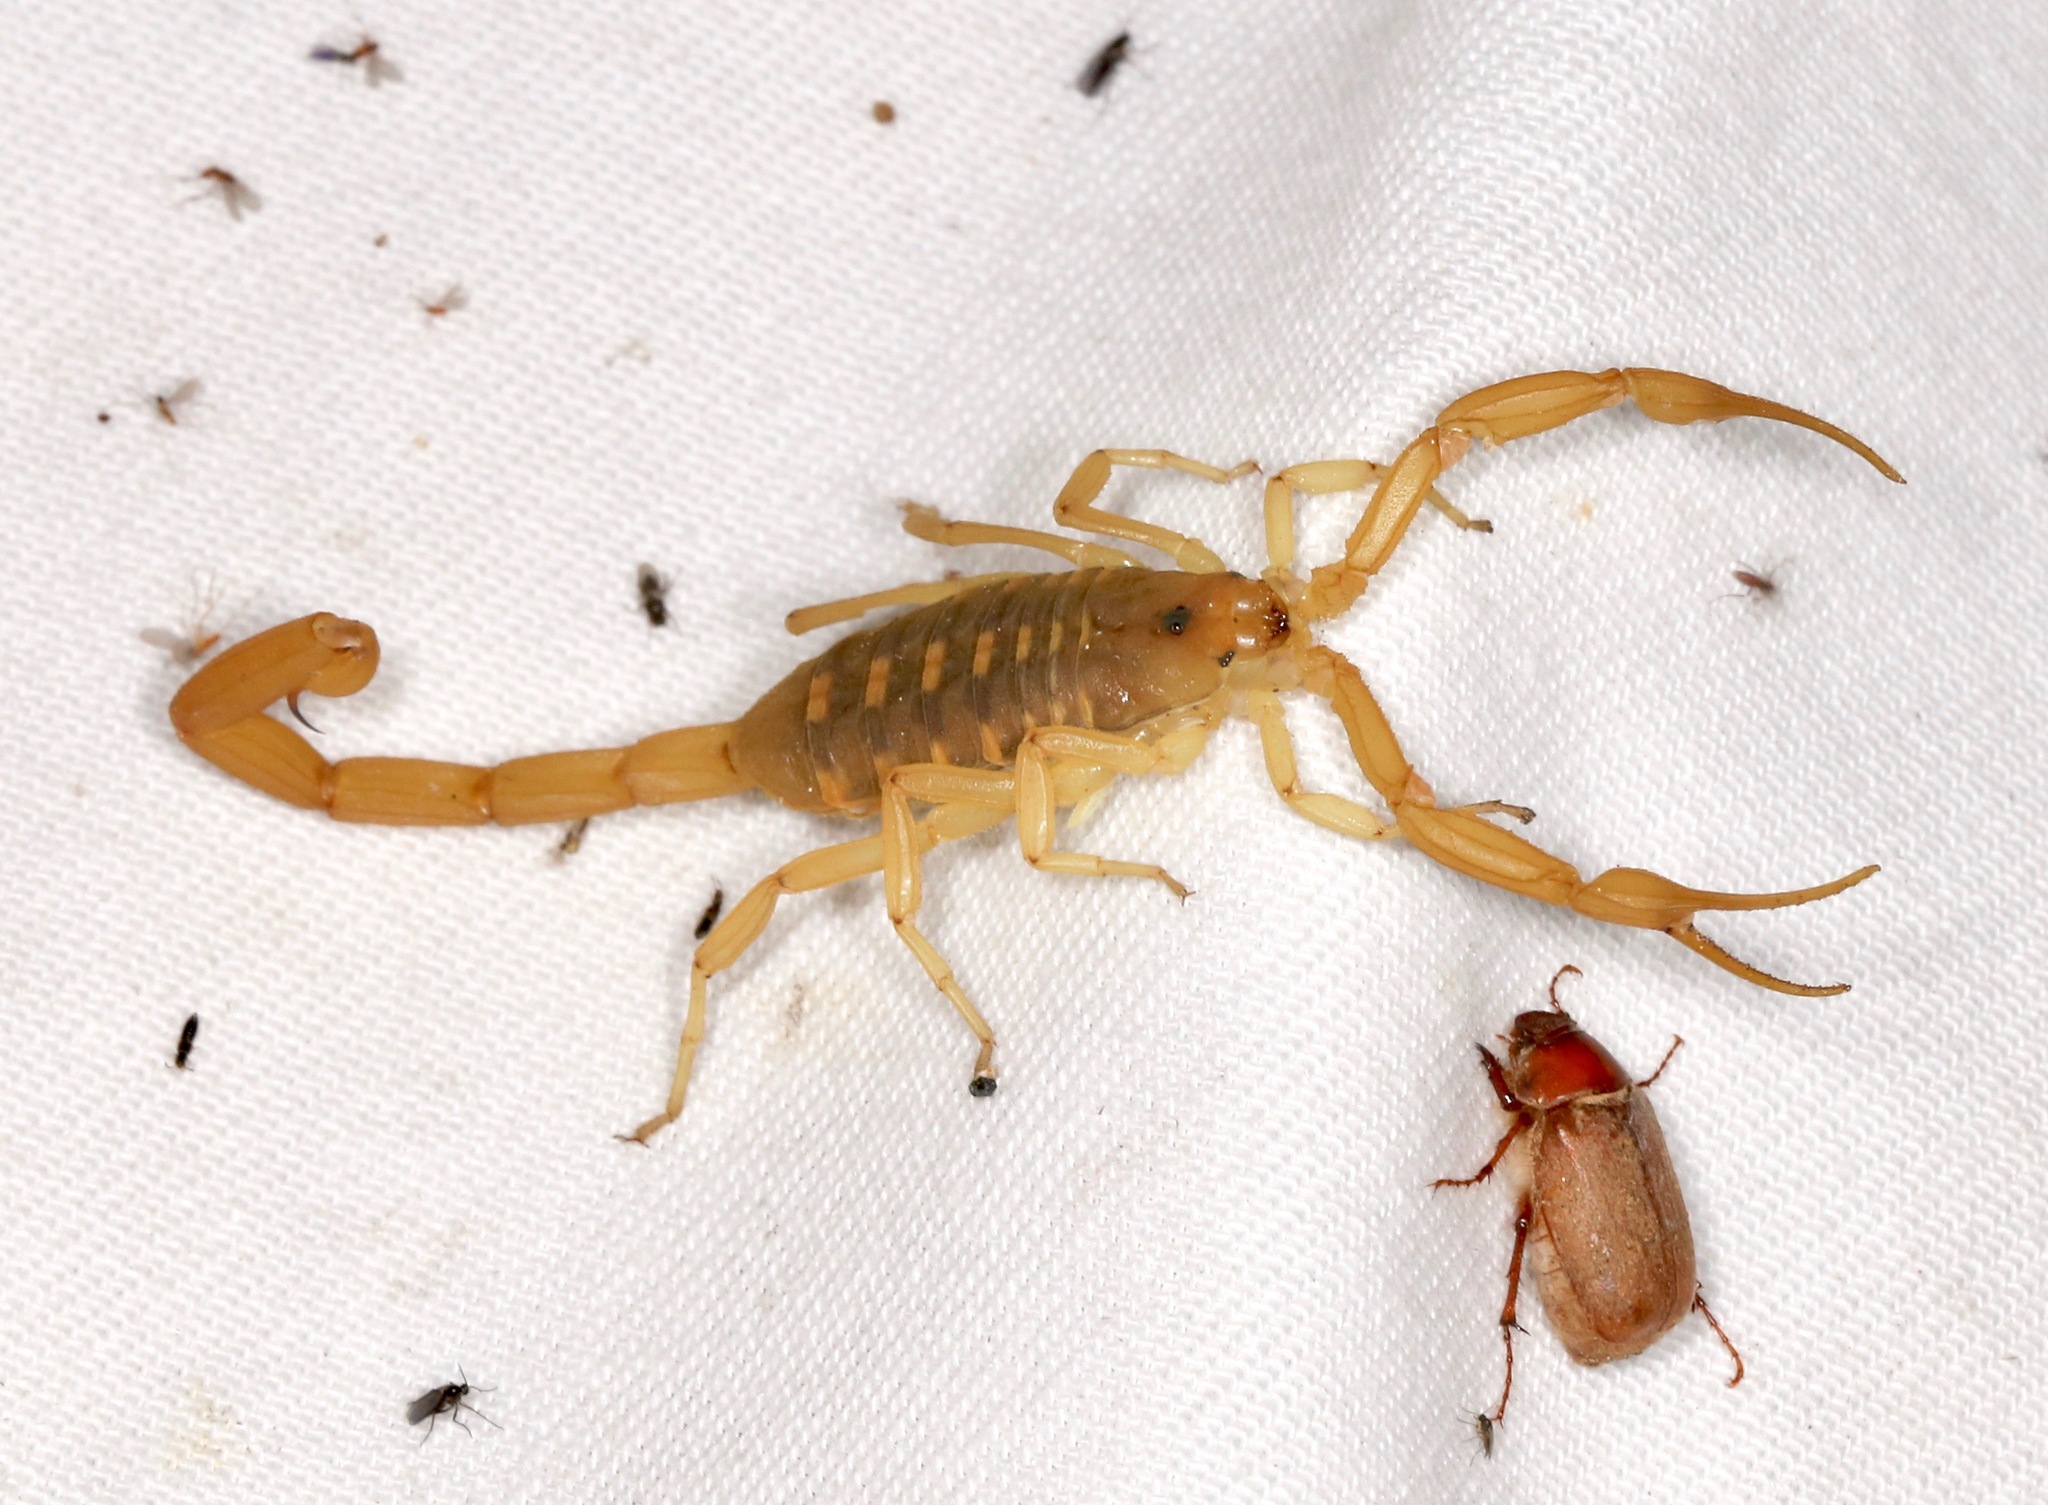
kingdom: Animalia
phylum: Arthropoda
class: Arachnida
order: Scorpiones
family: Buthidae
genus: Centruroides
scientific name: Centruroides sculpturatus
